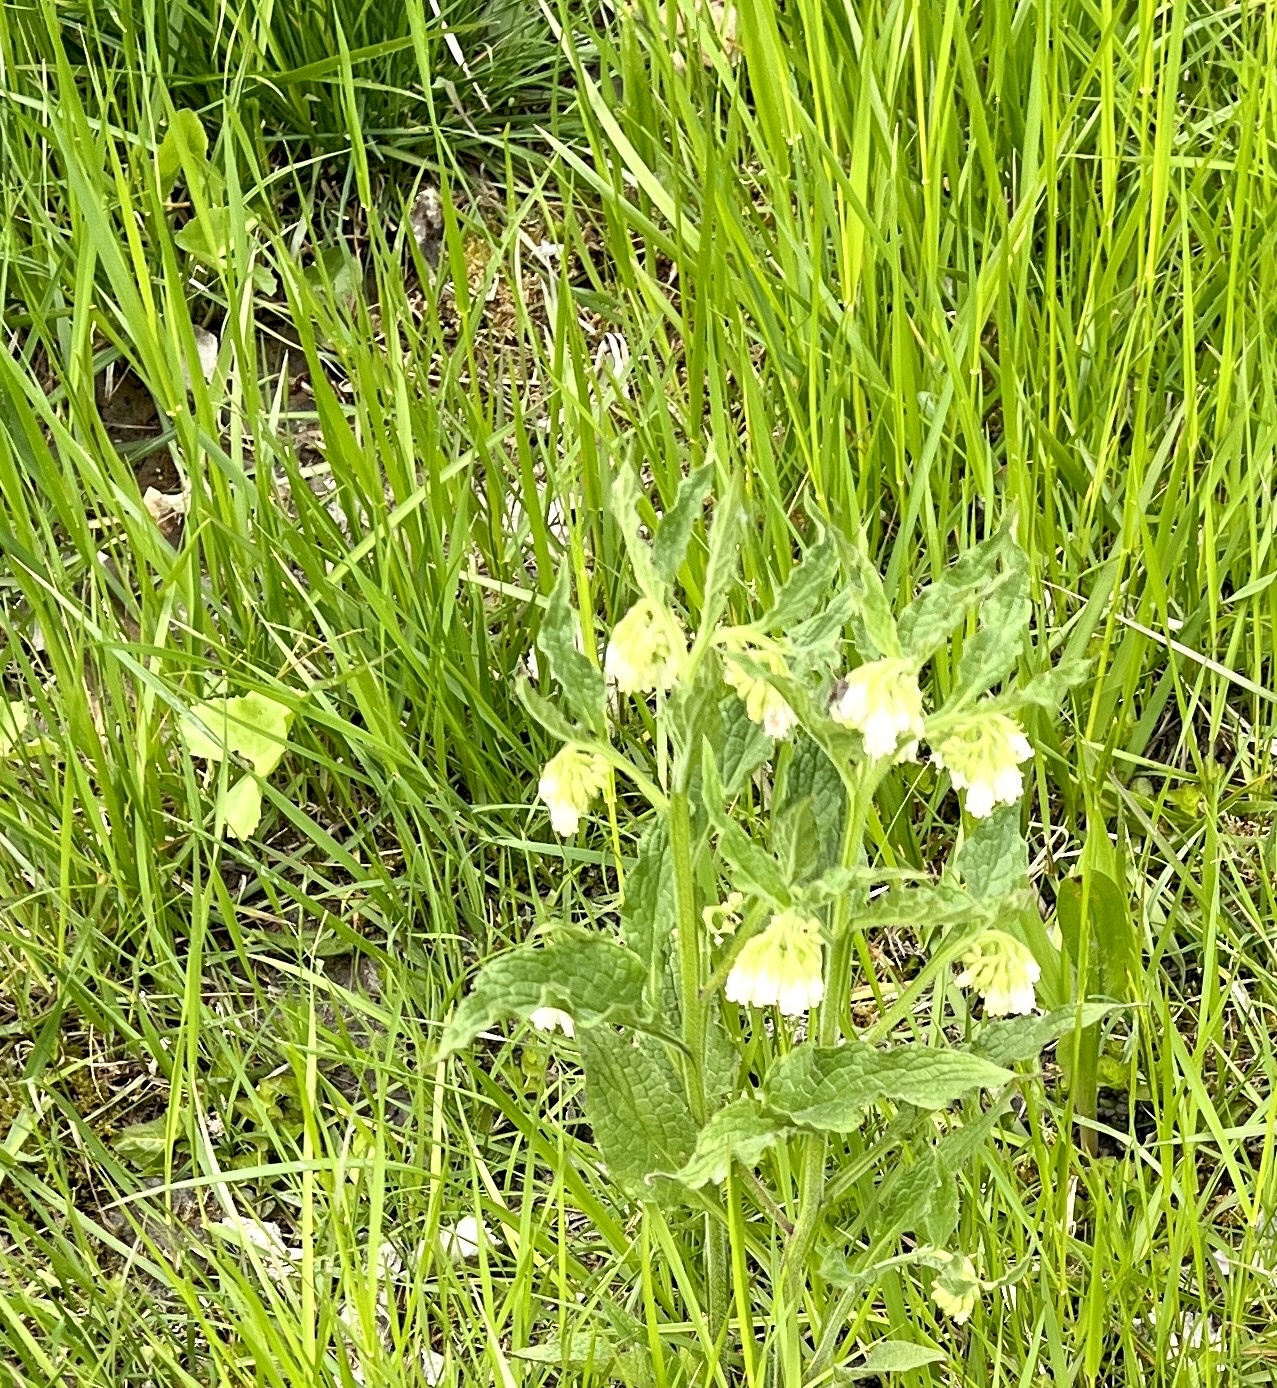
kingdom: Plantae
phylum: Tracheophyta
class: Magnoliopsida
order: Boraginales
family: Boraginaceae
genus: Symphytum
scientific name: Symphytum officinale
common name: Common comfrey
